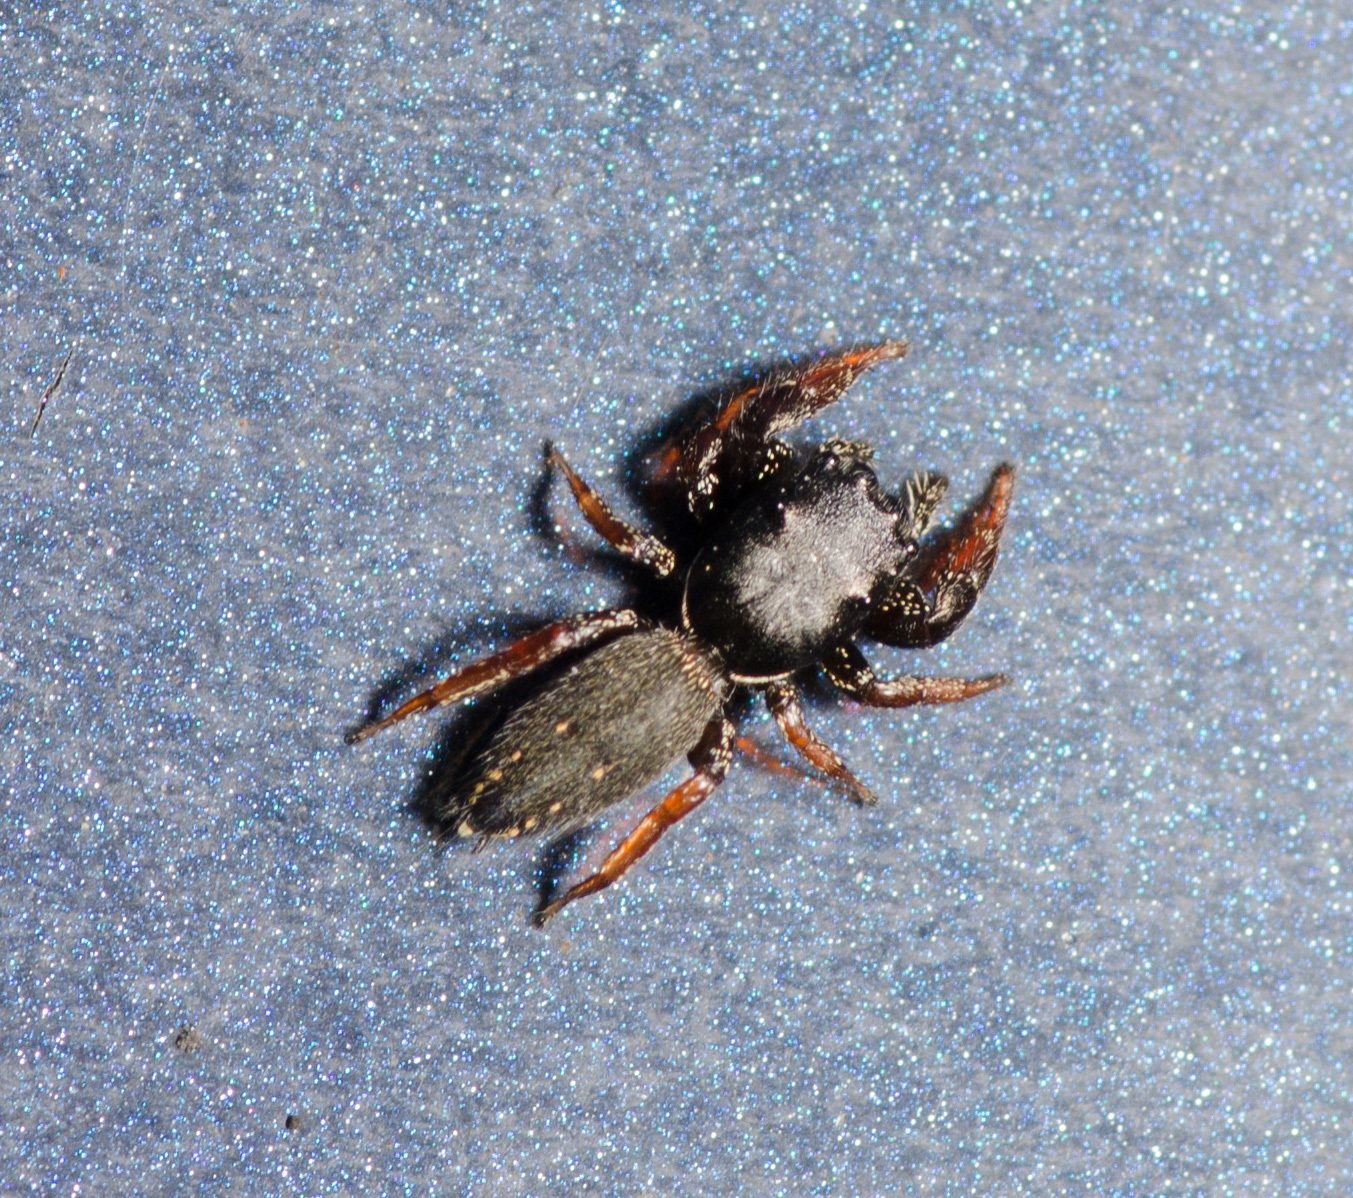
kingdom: Animalia
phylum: Arthropoda
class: Arachnida
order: Araneae
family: Salticidae
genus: Metacyrba
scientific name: Metacyrba taeniola
